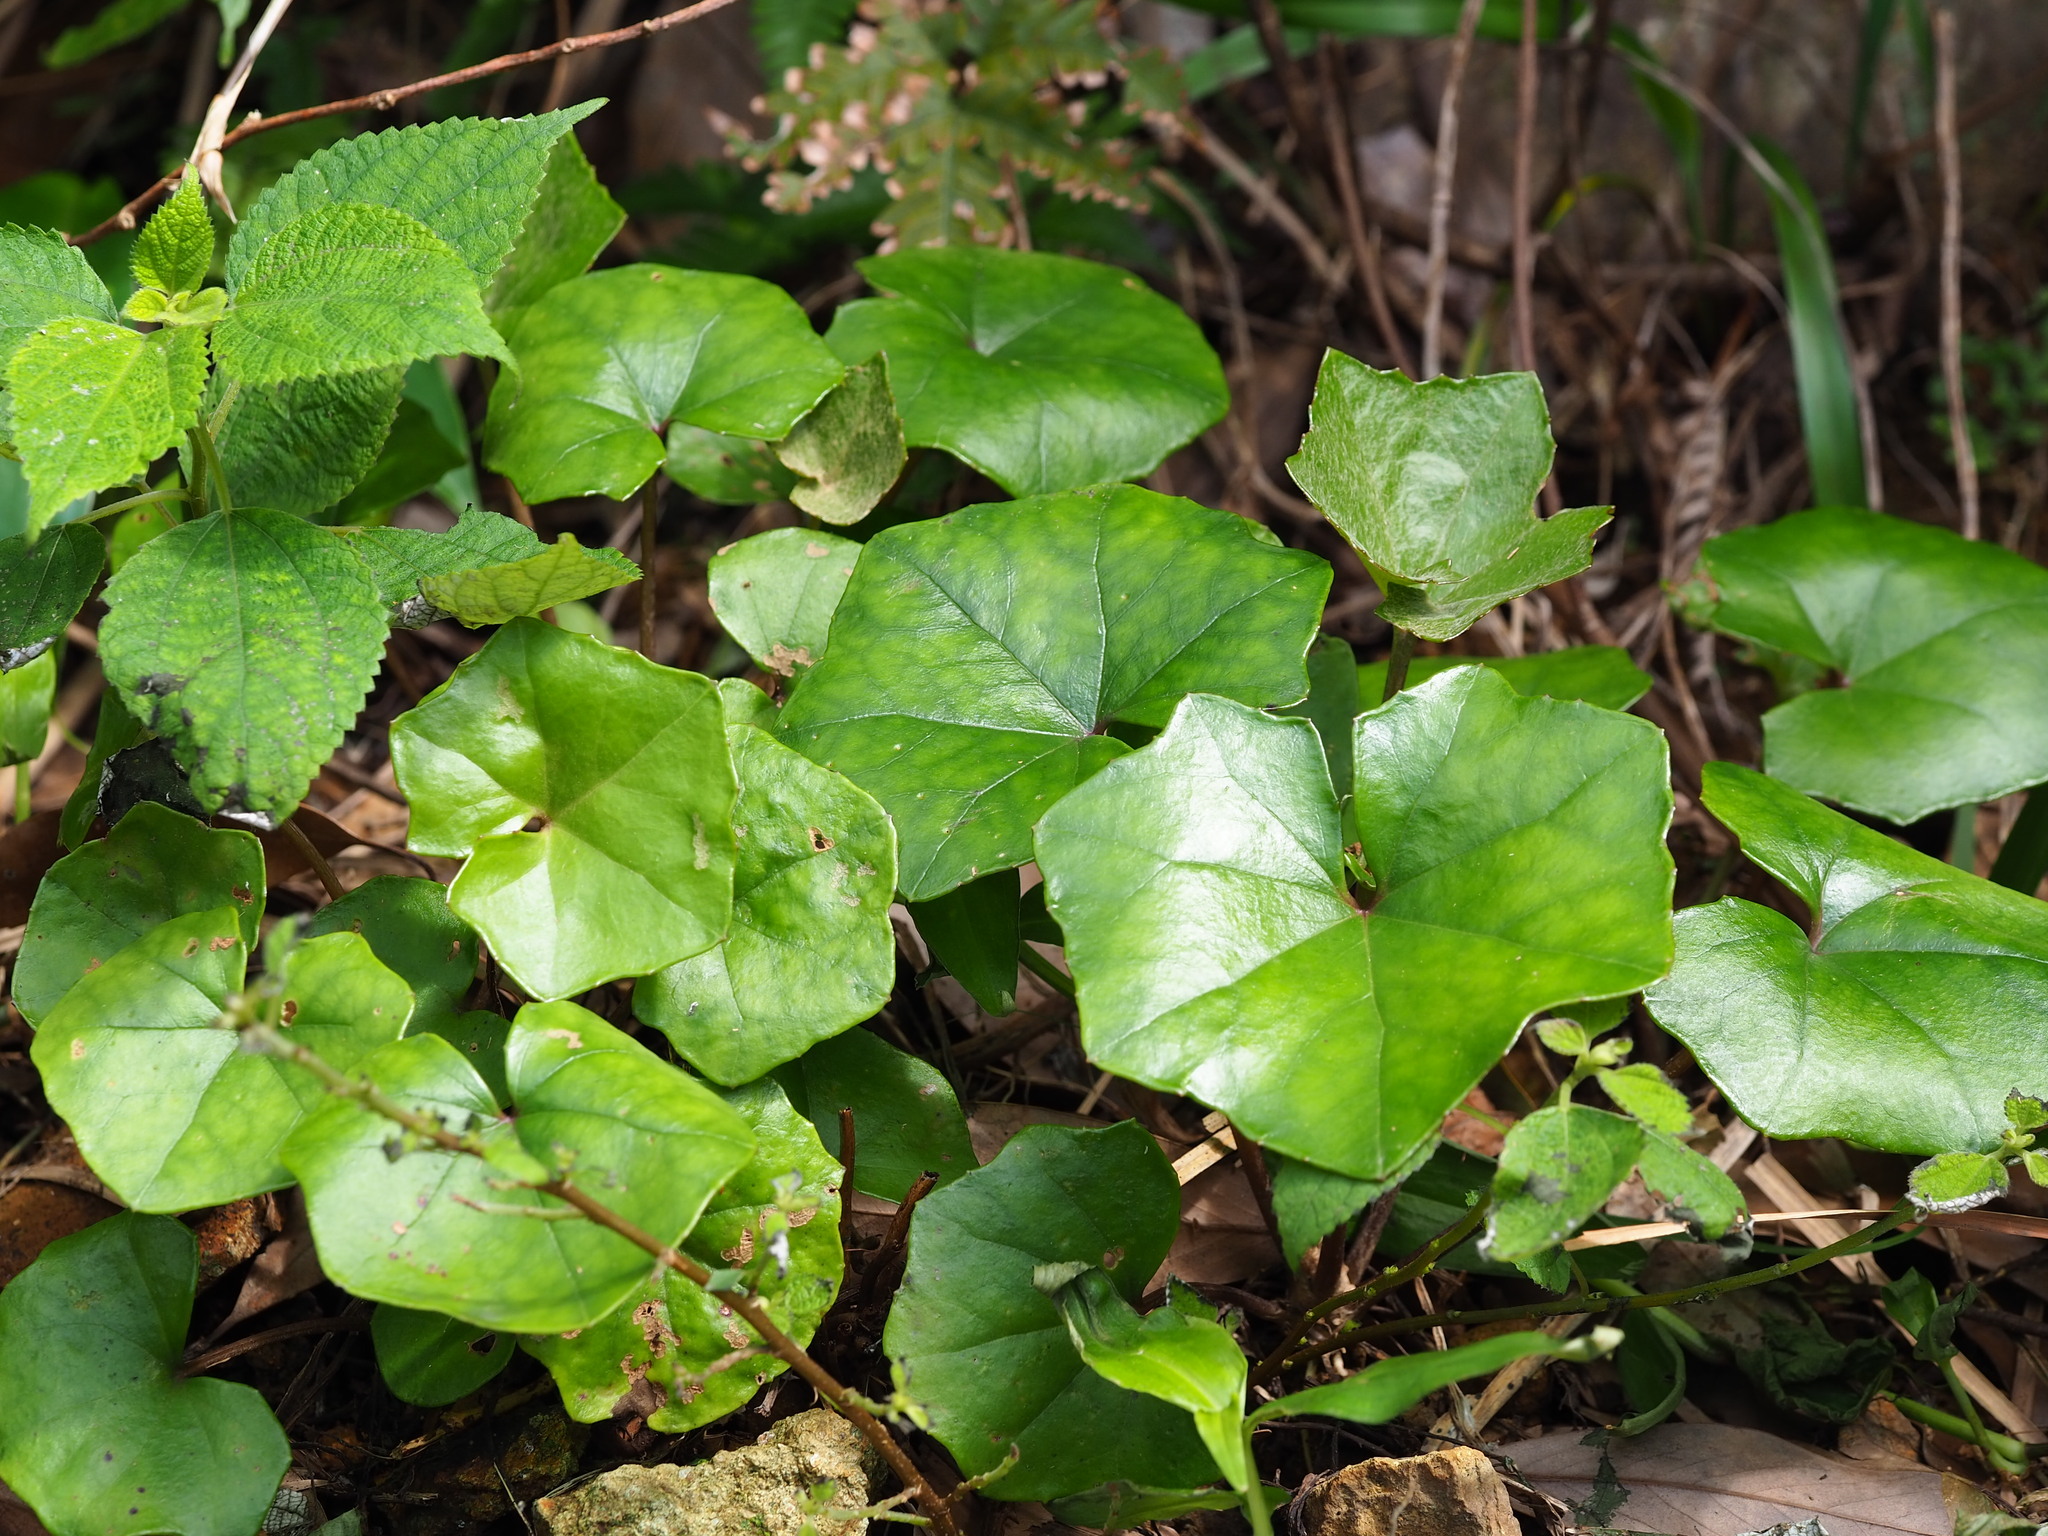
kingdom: Plantae
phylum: Tracheophyta
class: Magnoliopsida
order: Asterales
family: Asteraceae
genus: Farfugium
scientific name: Farfugium japonicum
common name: Leopardplant
